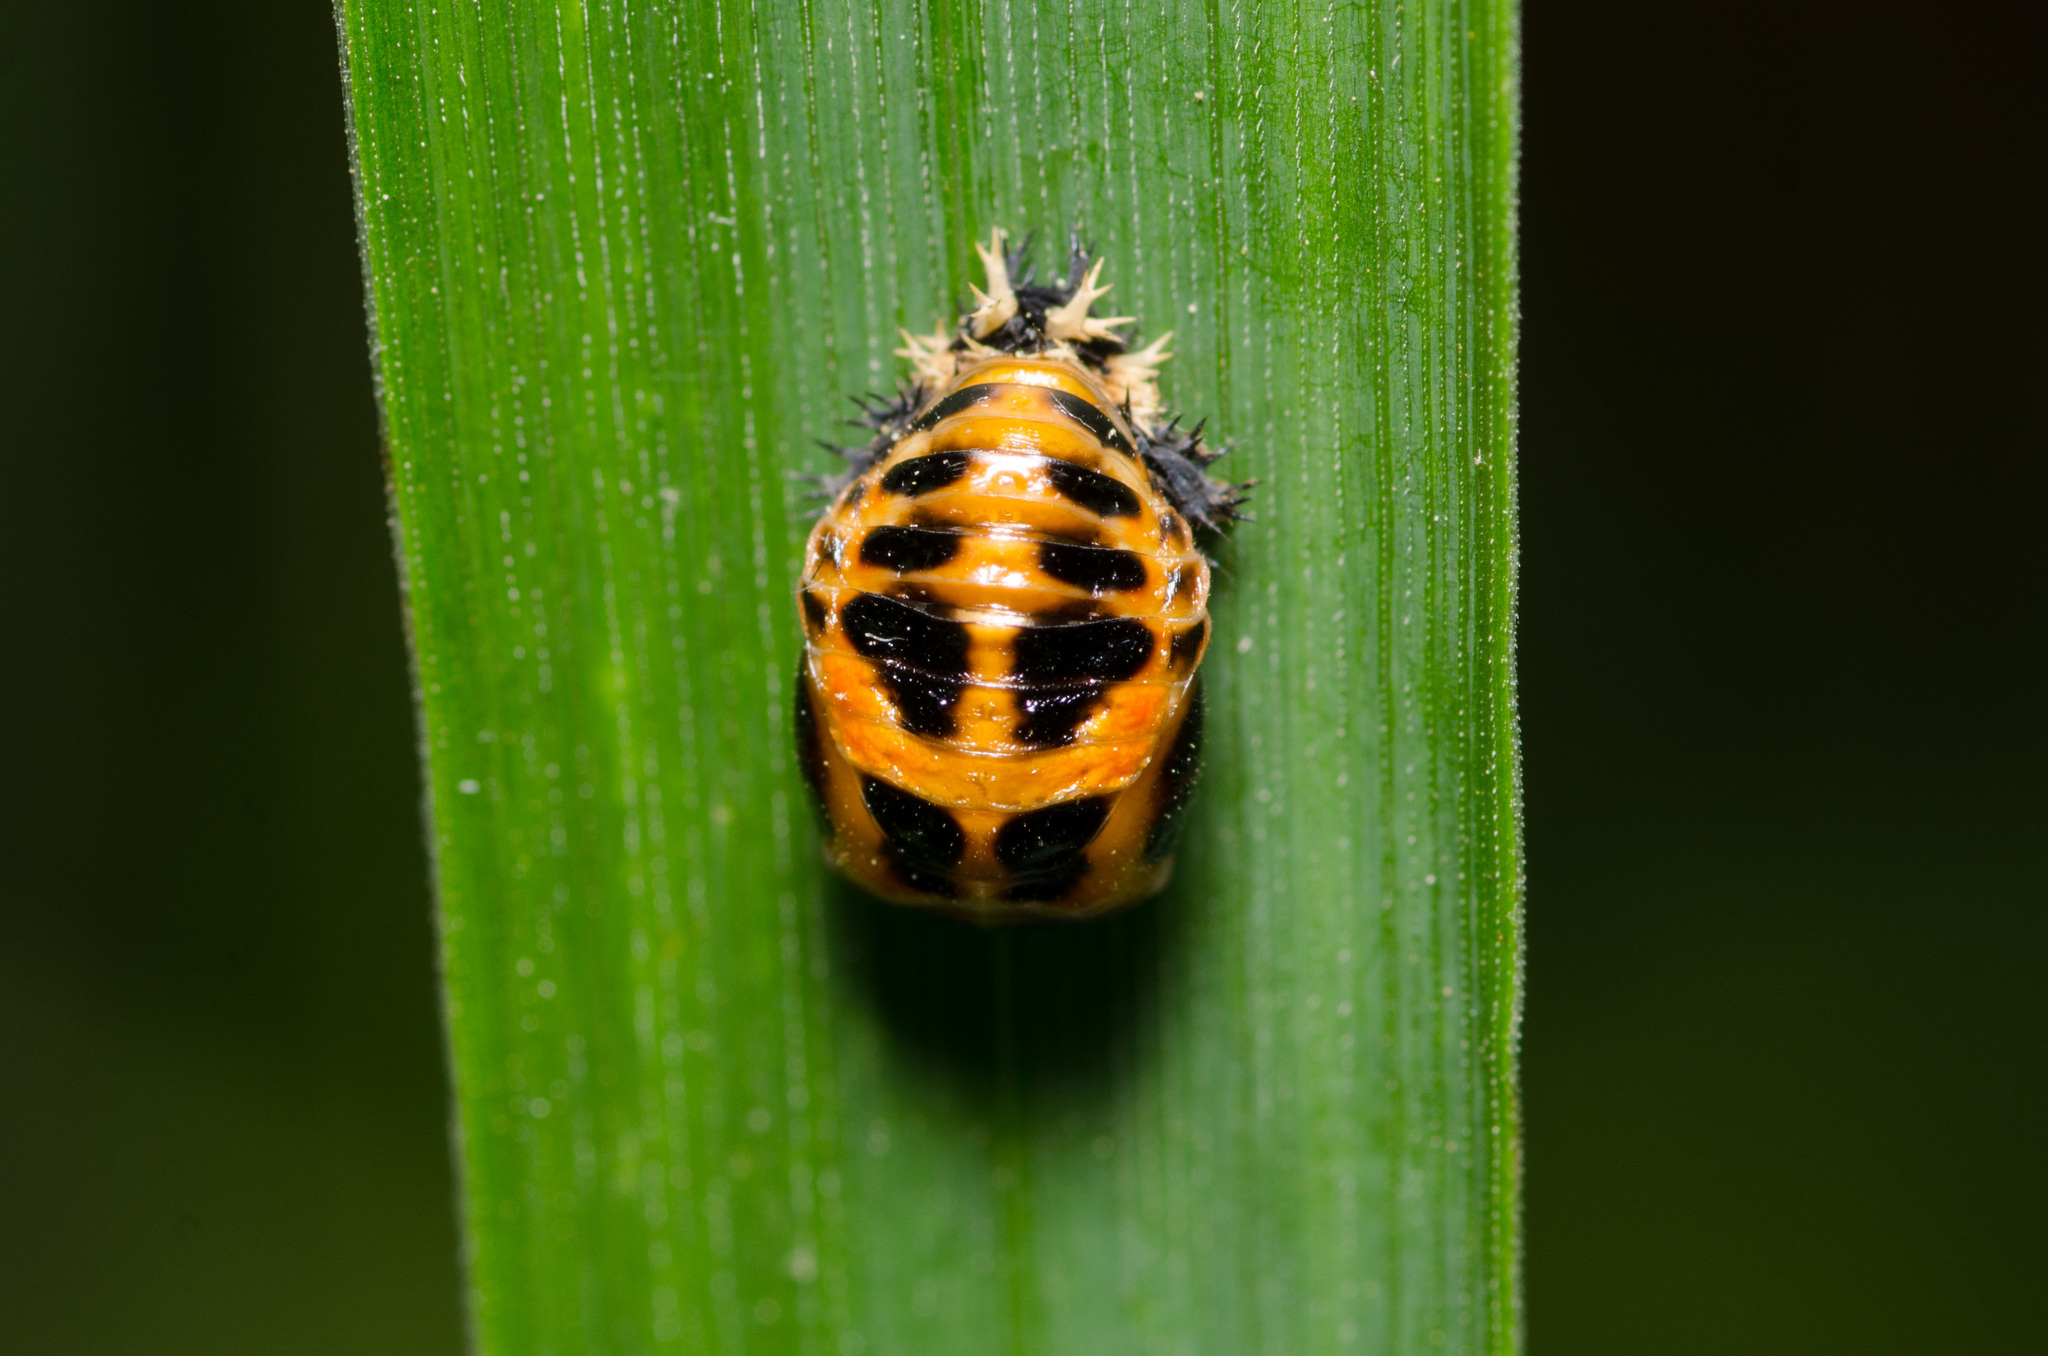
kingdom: Animalia
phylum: Arthropoda
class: Insecta
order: Coleoptera
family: Coccinellidae
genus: Harmonia
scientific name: Harmonia axyridis
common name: Harlequin ladybird
